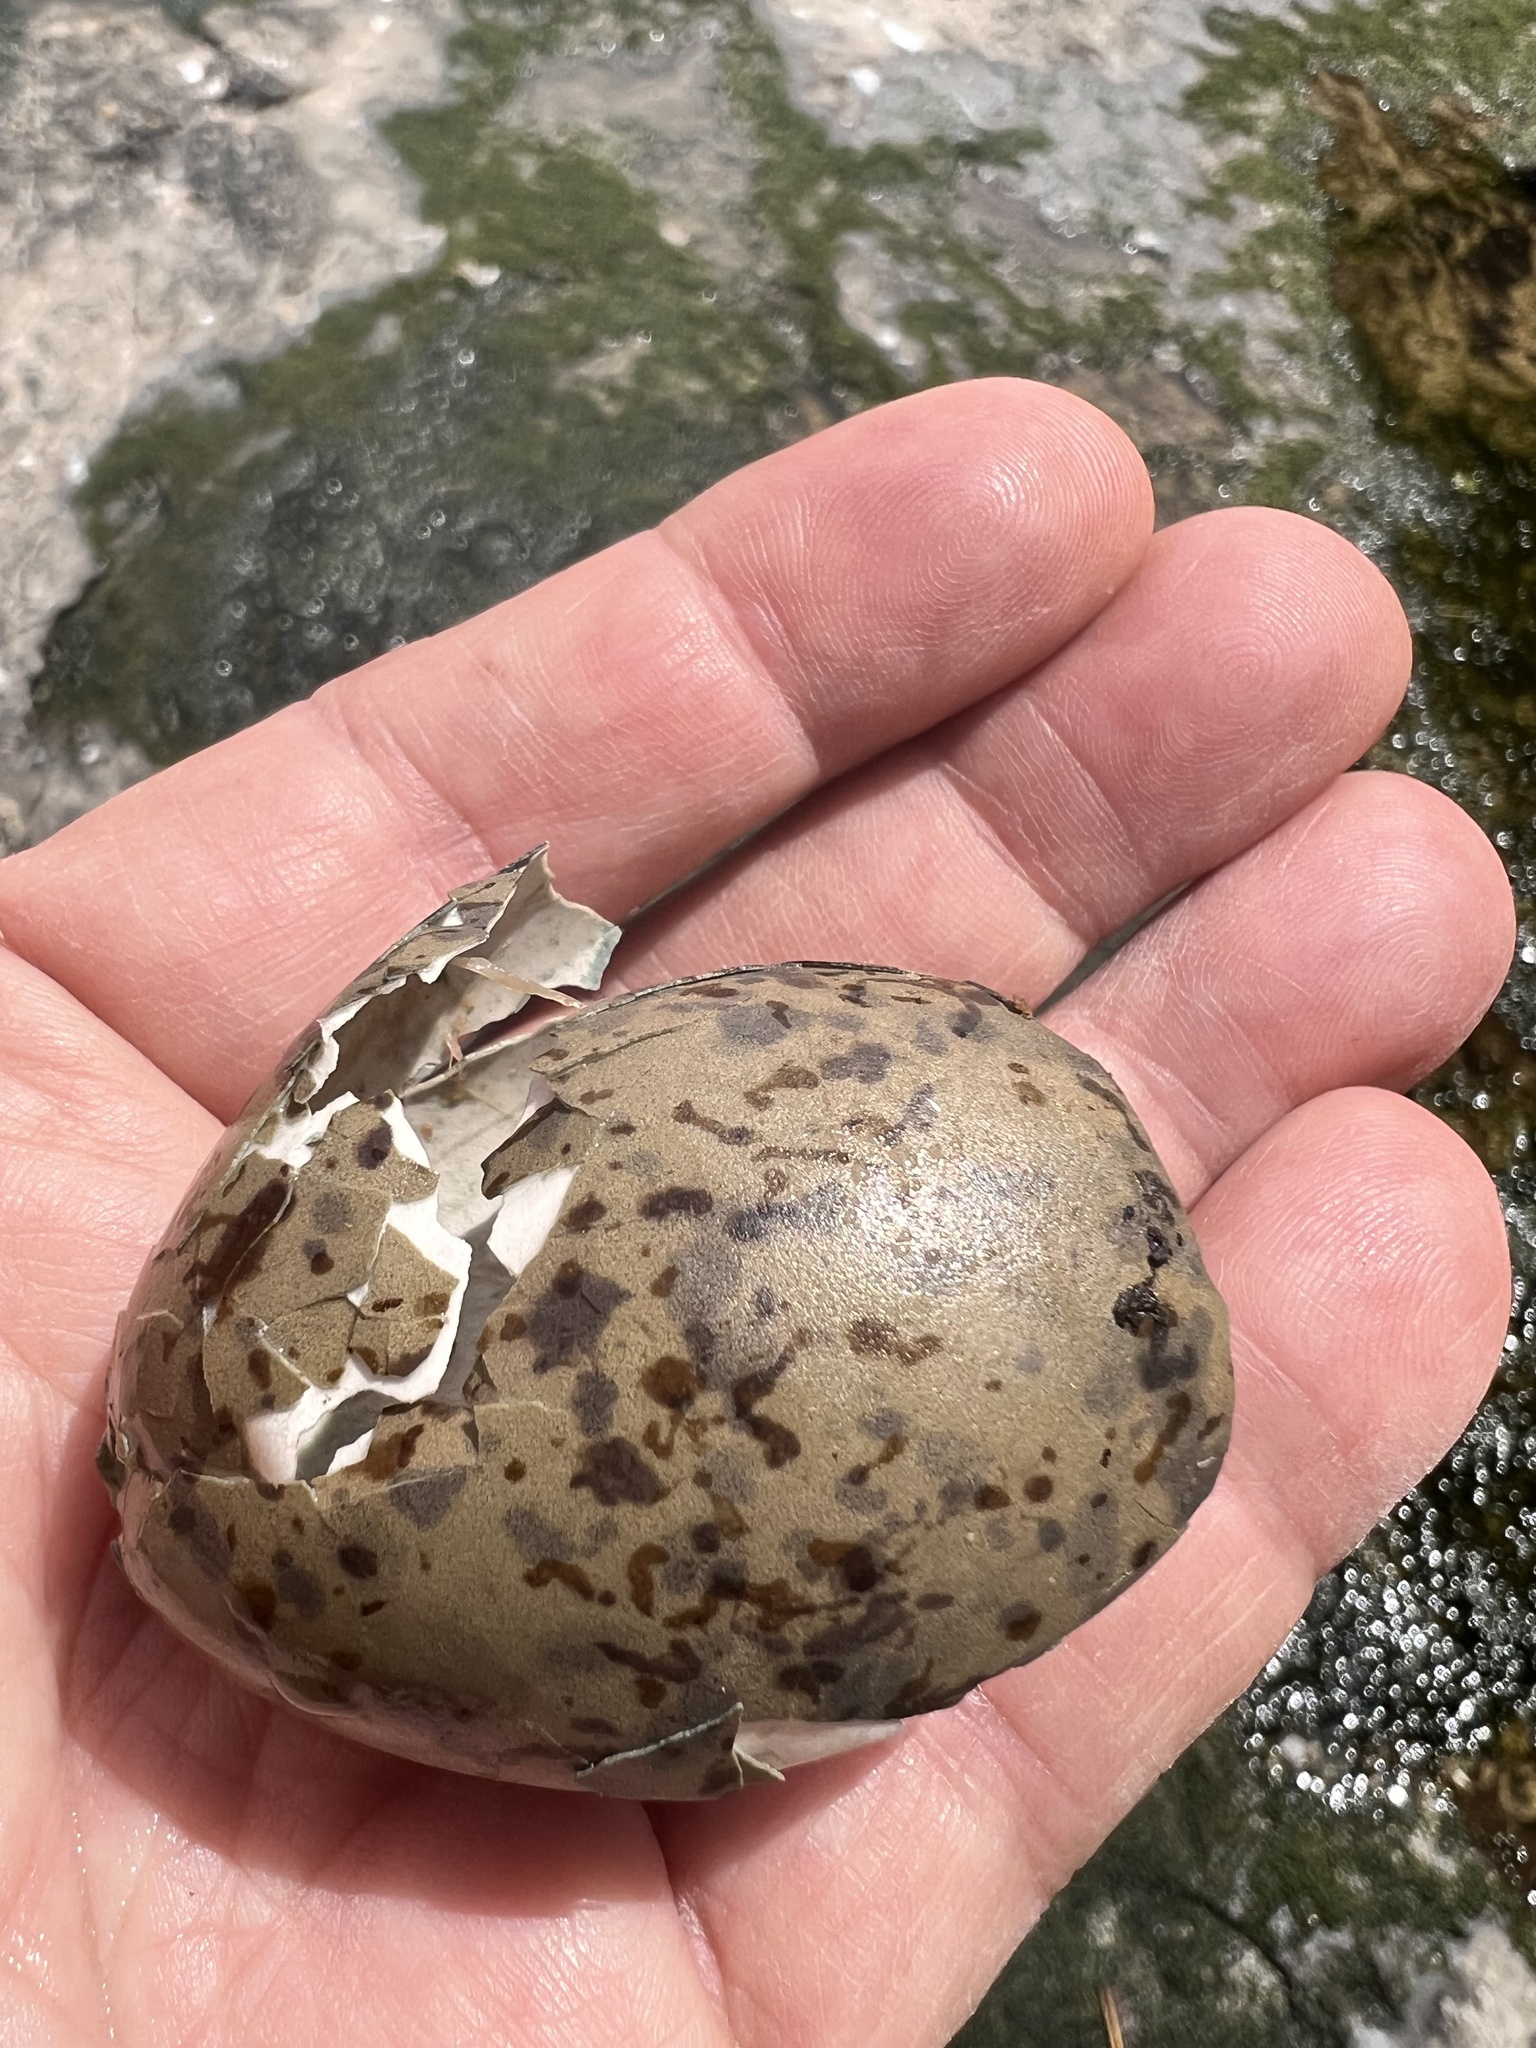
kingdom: Animalia
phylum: Chordata
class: Aves
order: Charadriiformes
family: Laridae
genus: Larus
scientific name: Larus dominicanus
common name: Kelp gull
